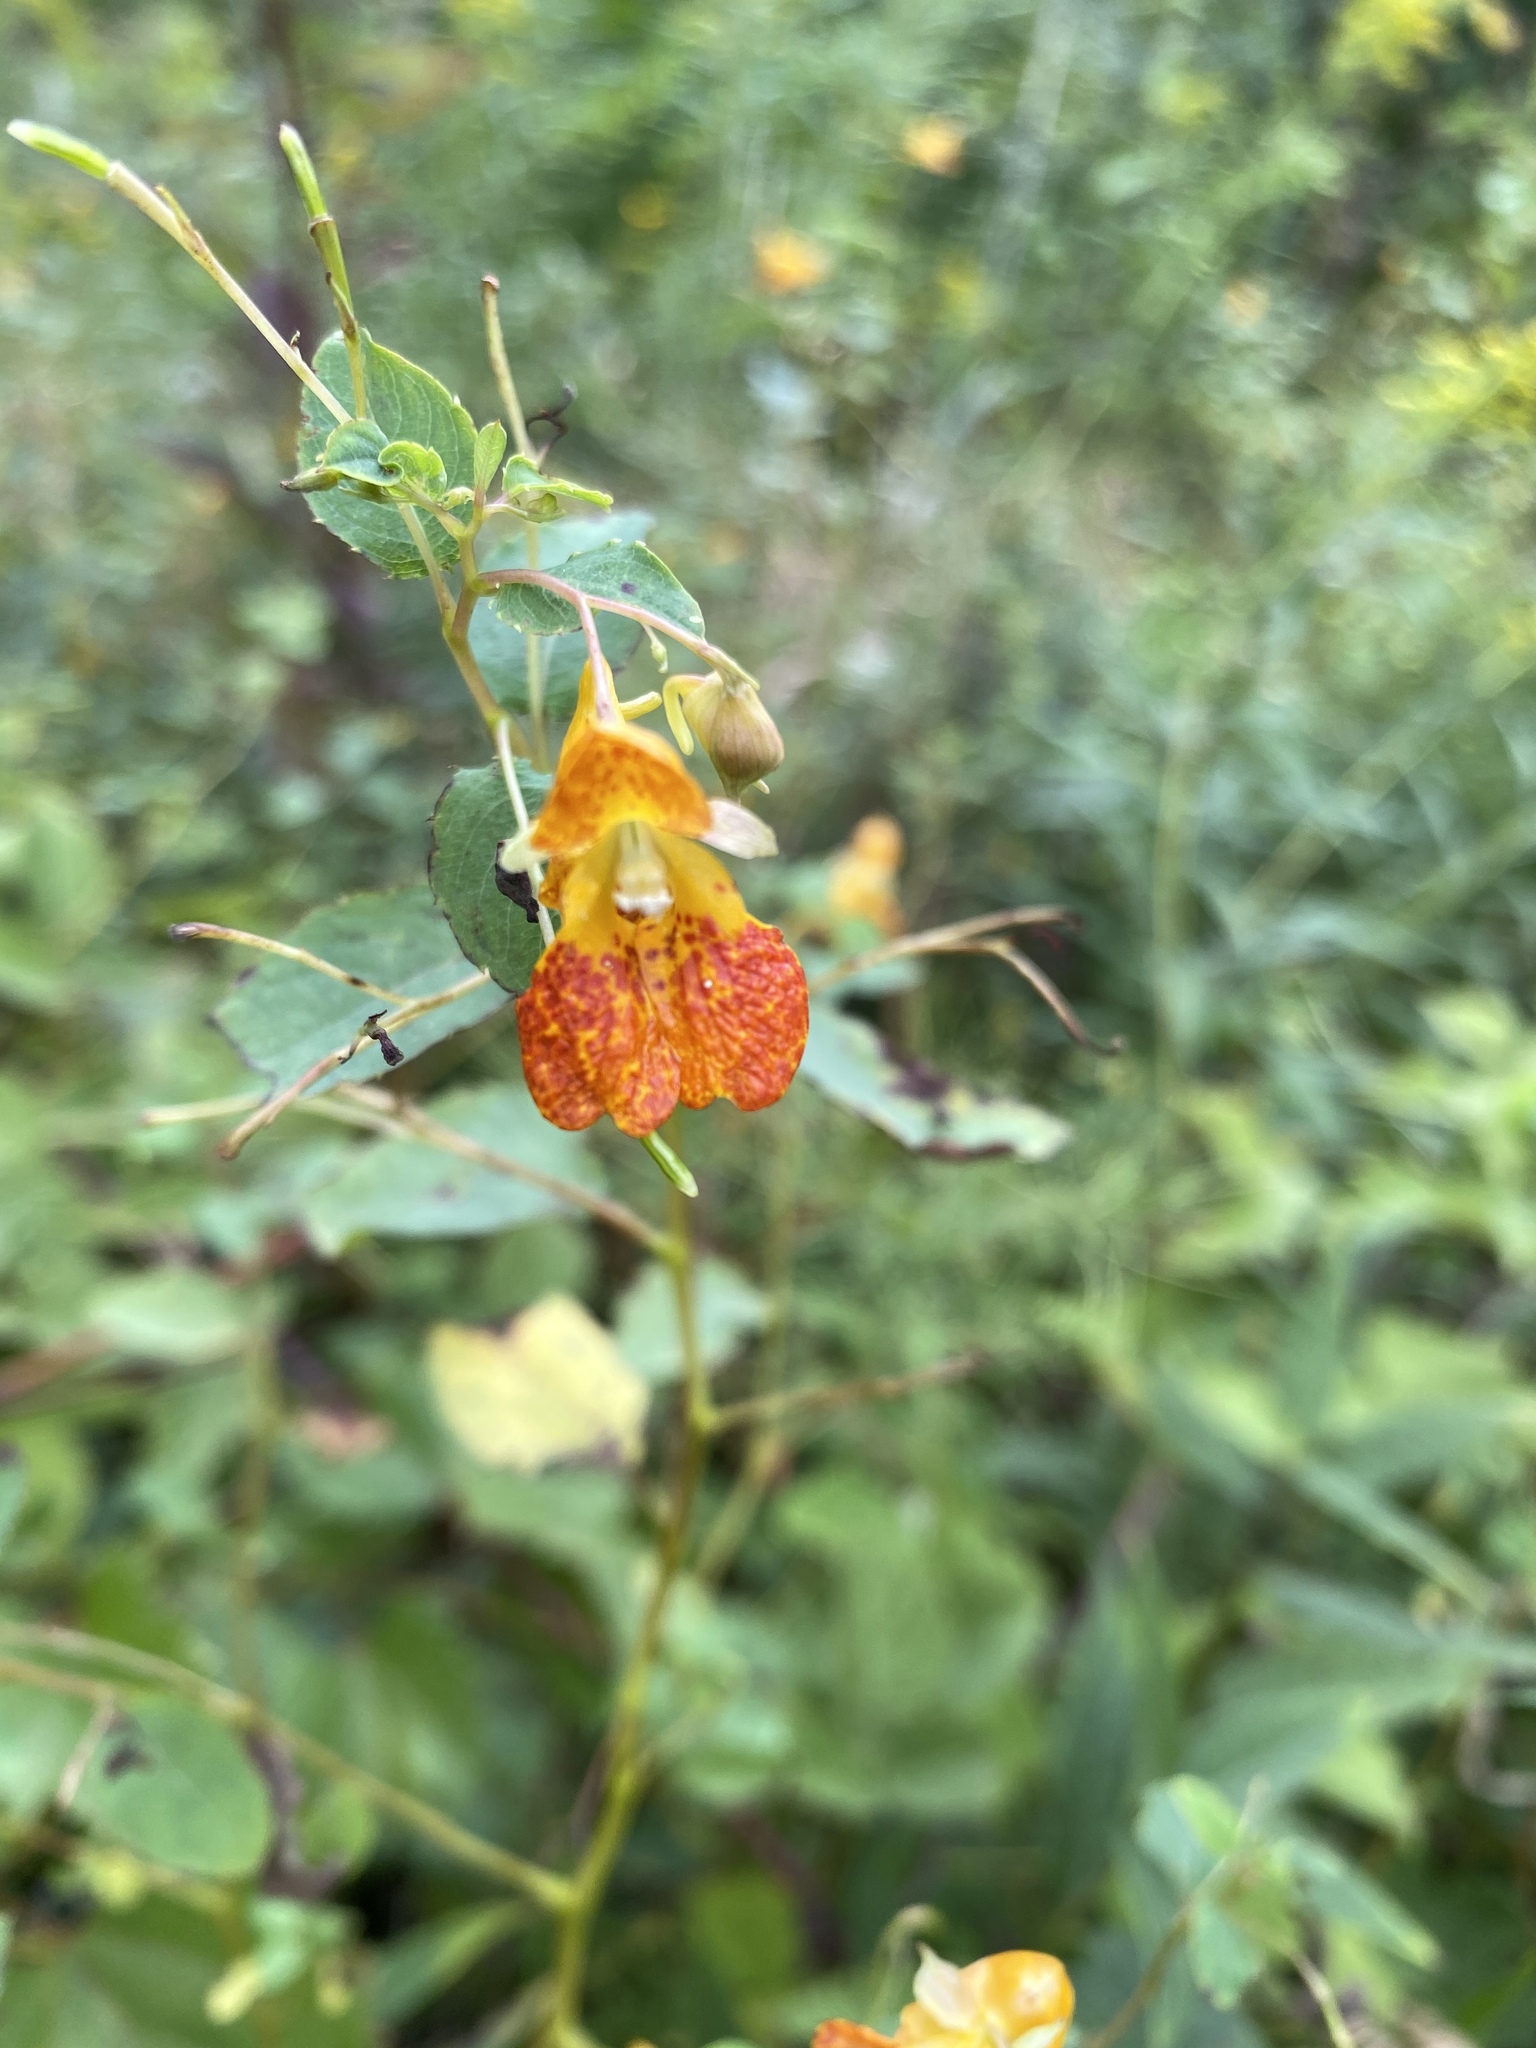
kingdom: Plantae
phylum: Tracheophyta
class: Magnoliopsida
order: Ericales
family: Balsaminaceae
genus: Impatiens
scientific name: Impatiens capensis
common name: Orange balsam
